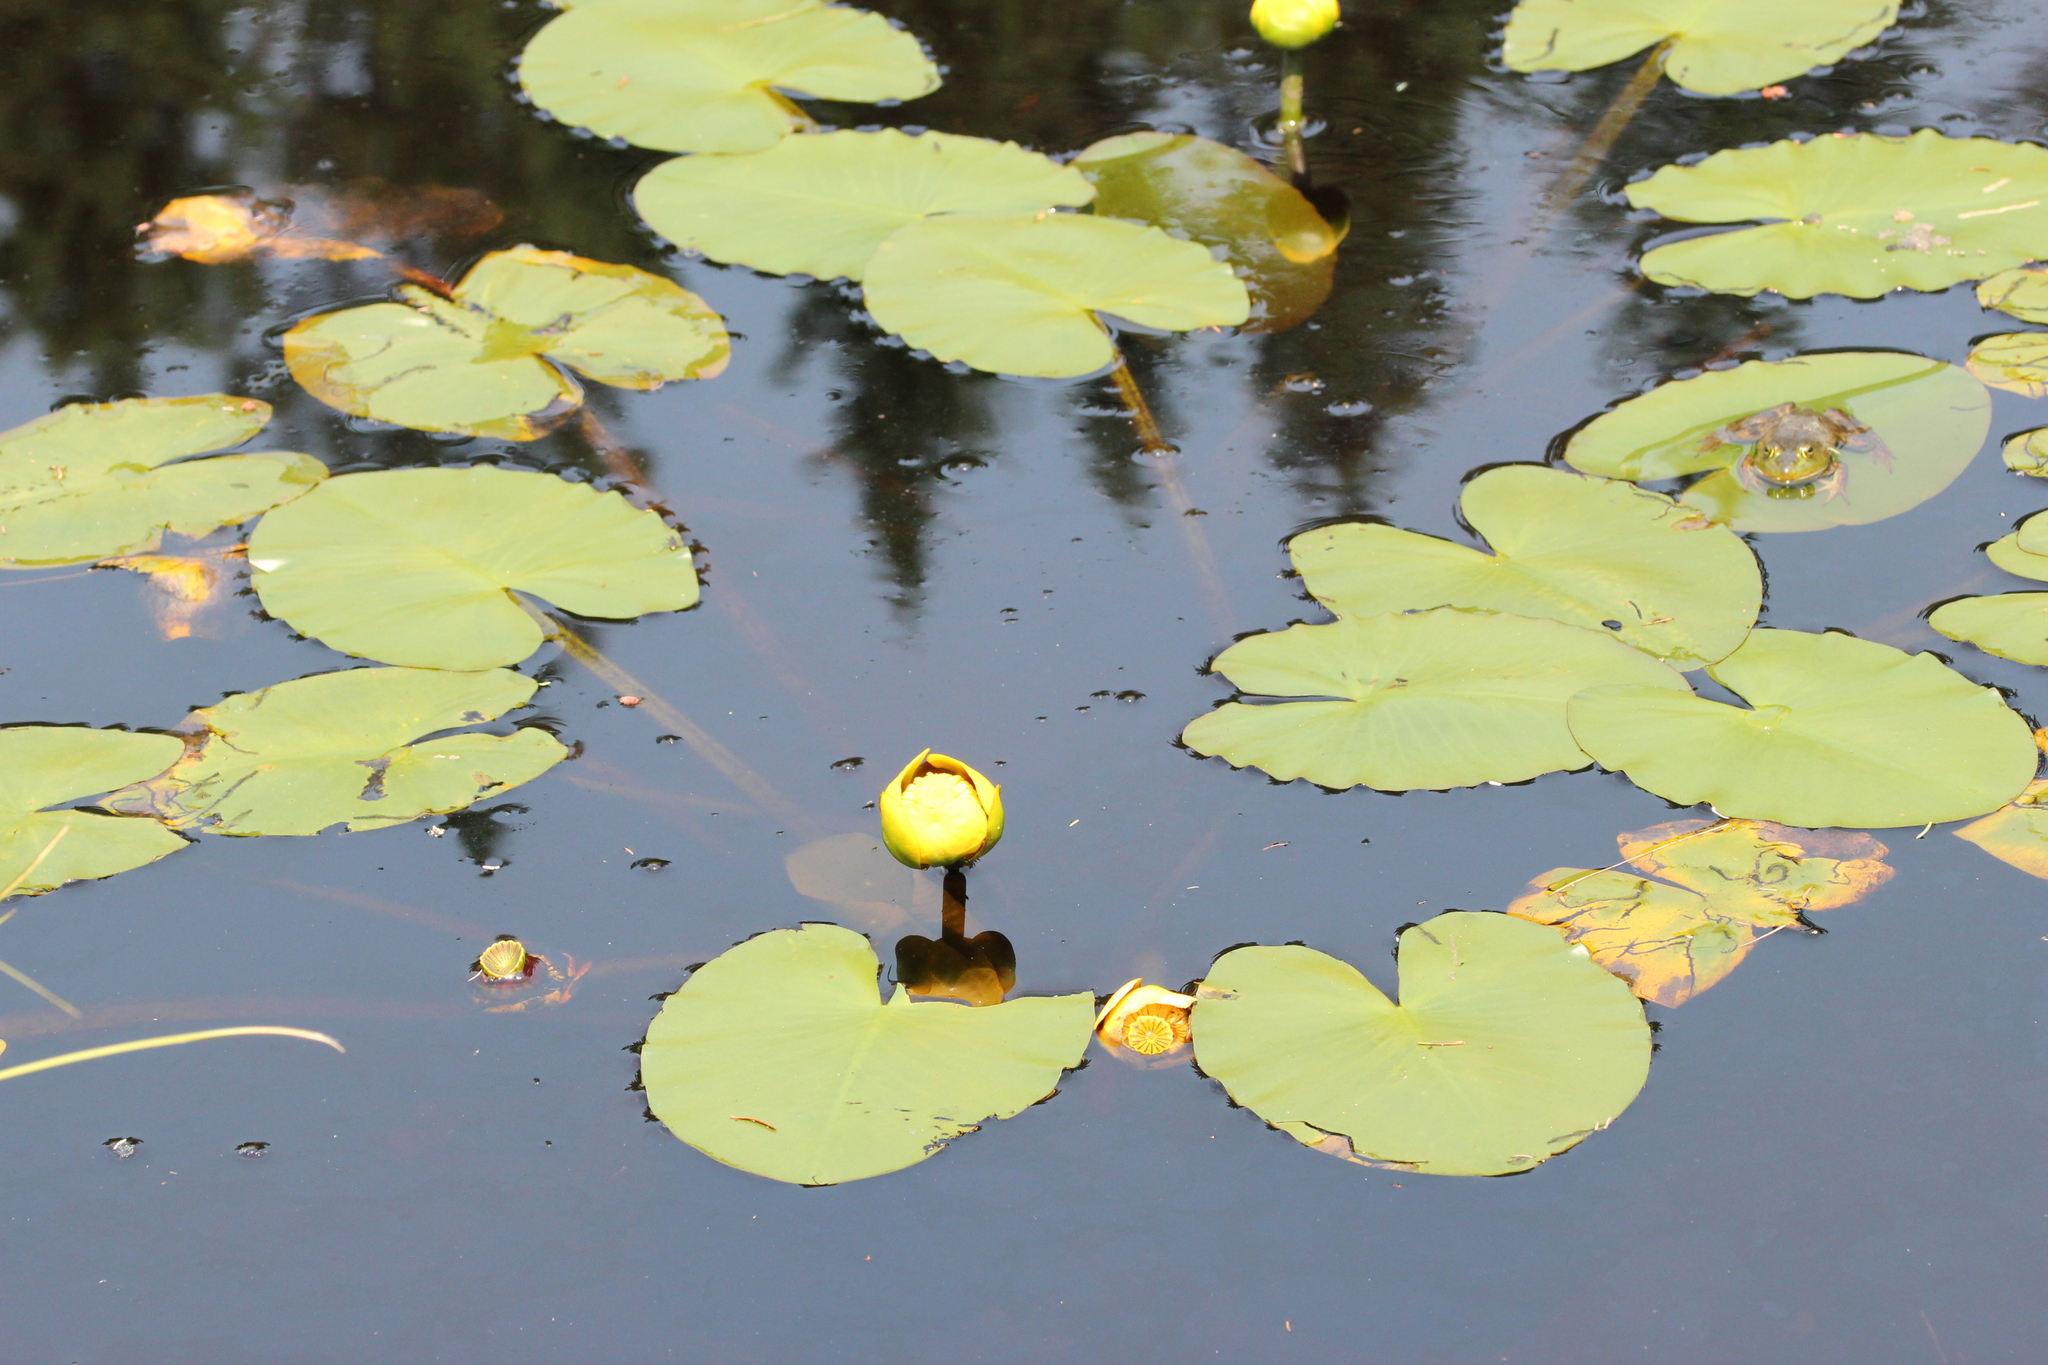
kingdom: Plantae
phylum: Tracheophyta
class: Magnoliopsida
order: Nymphaeales
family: Nymphaeaceae
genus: Nuphar
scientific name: Nuphar variegata
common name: Beaver-root
